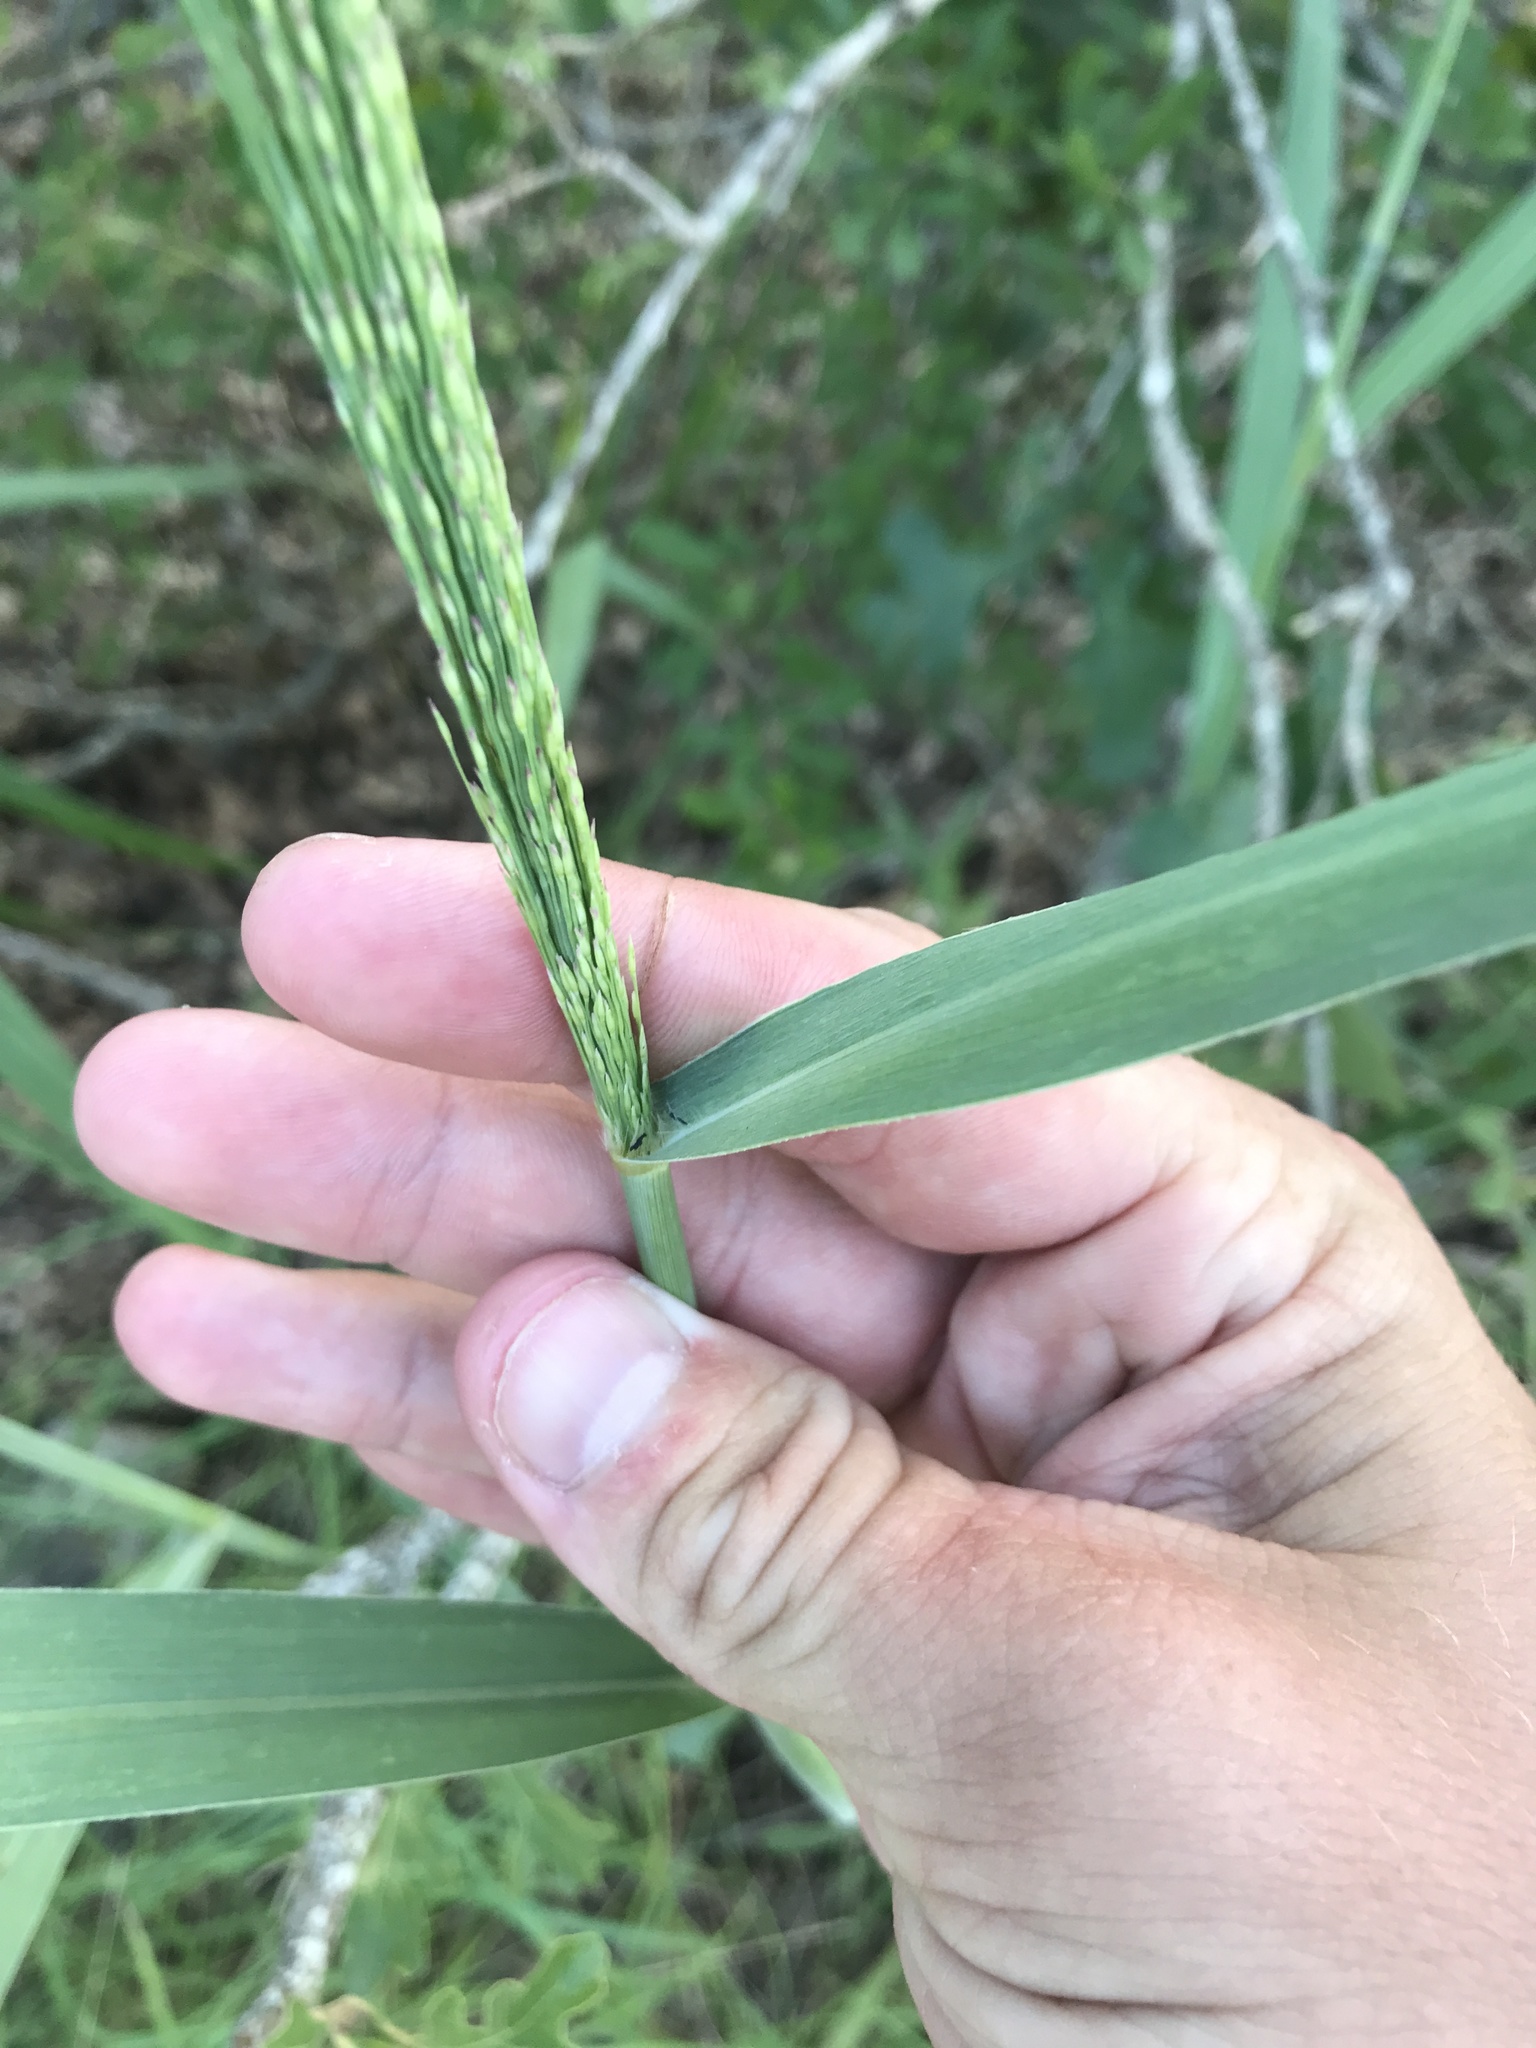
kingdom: Plantae
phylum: Tracheophyta
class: Liliopsida
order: Poales
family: Poaceae
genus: Panicum
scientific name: Panicum virgatum
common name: Switchgrass
